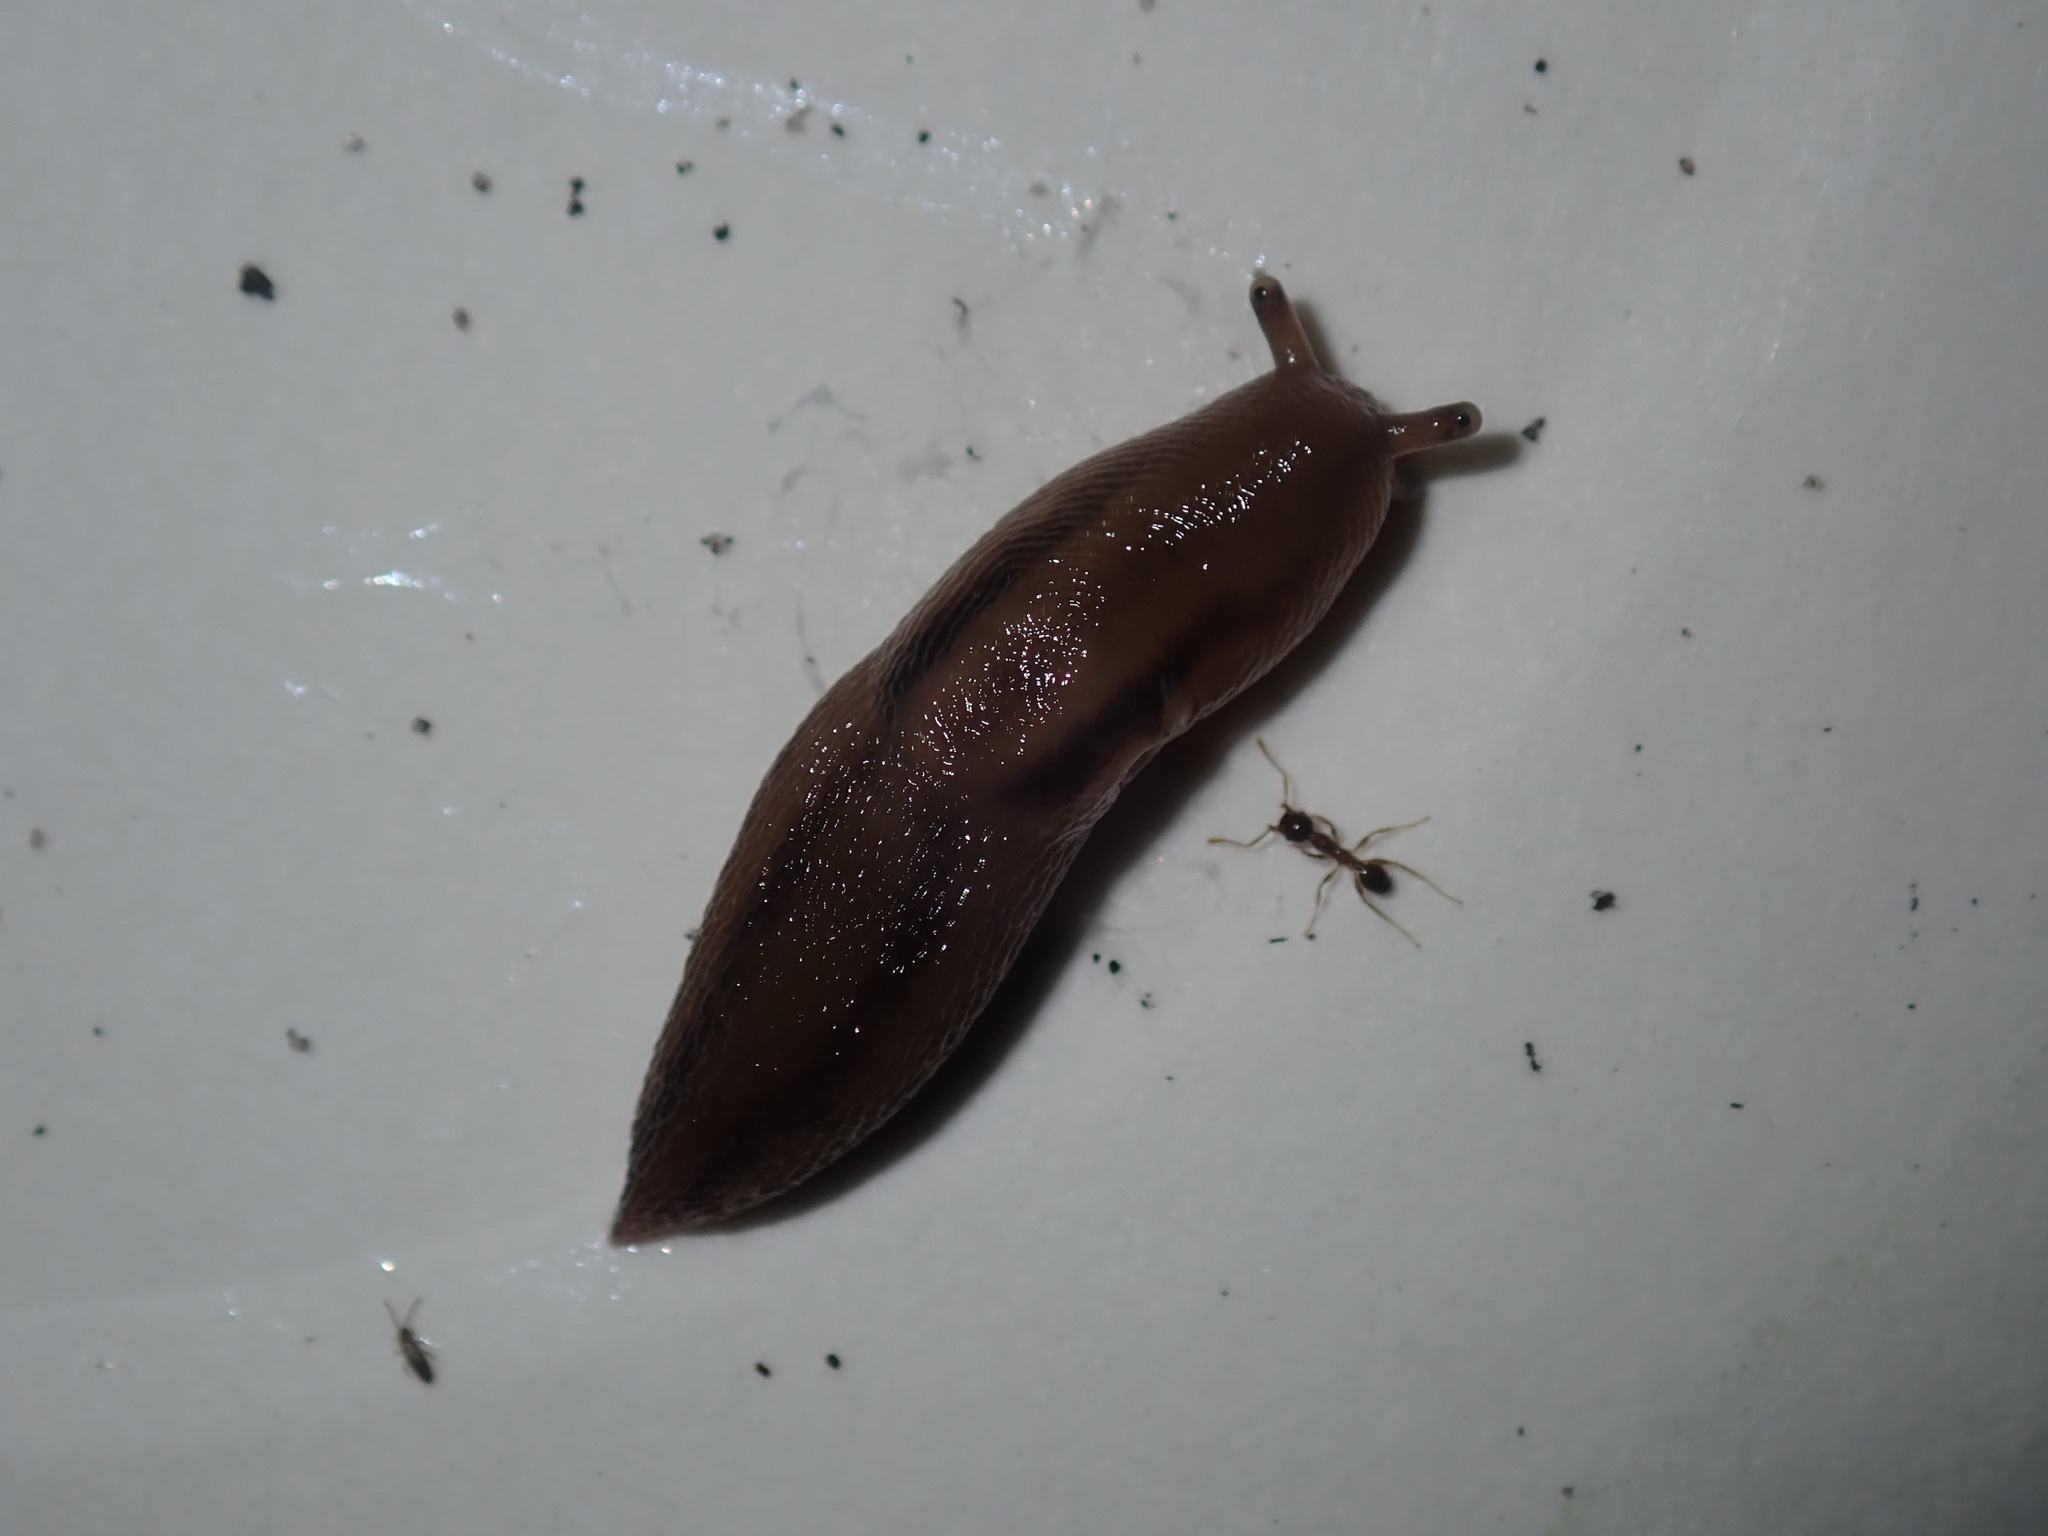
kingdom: Animalia
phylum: Mollusca
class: Gastropoda
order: Stylommatophora
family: Limacidae
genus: Ambigolimax
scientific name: Ambigolimax
